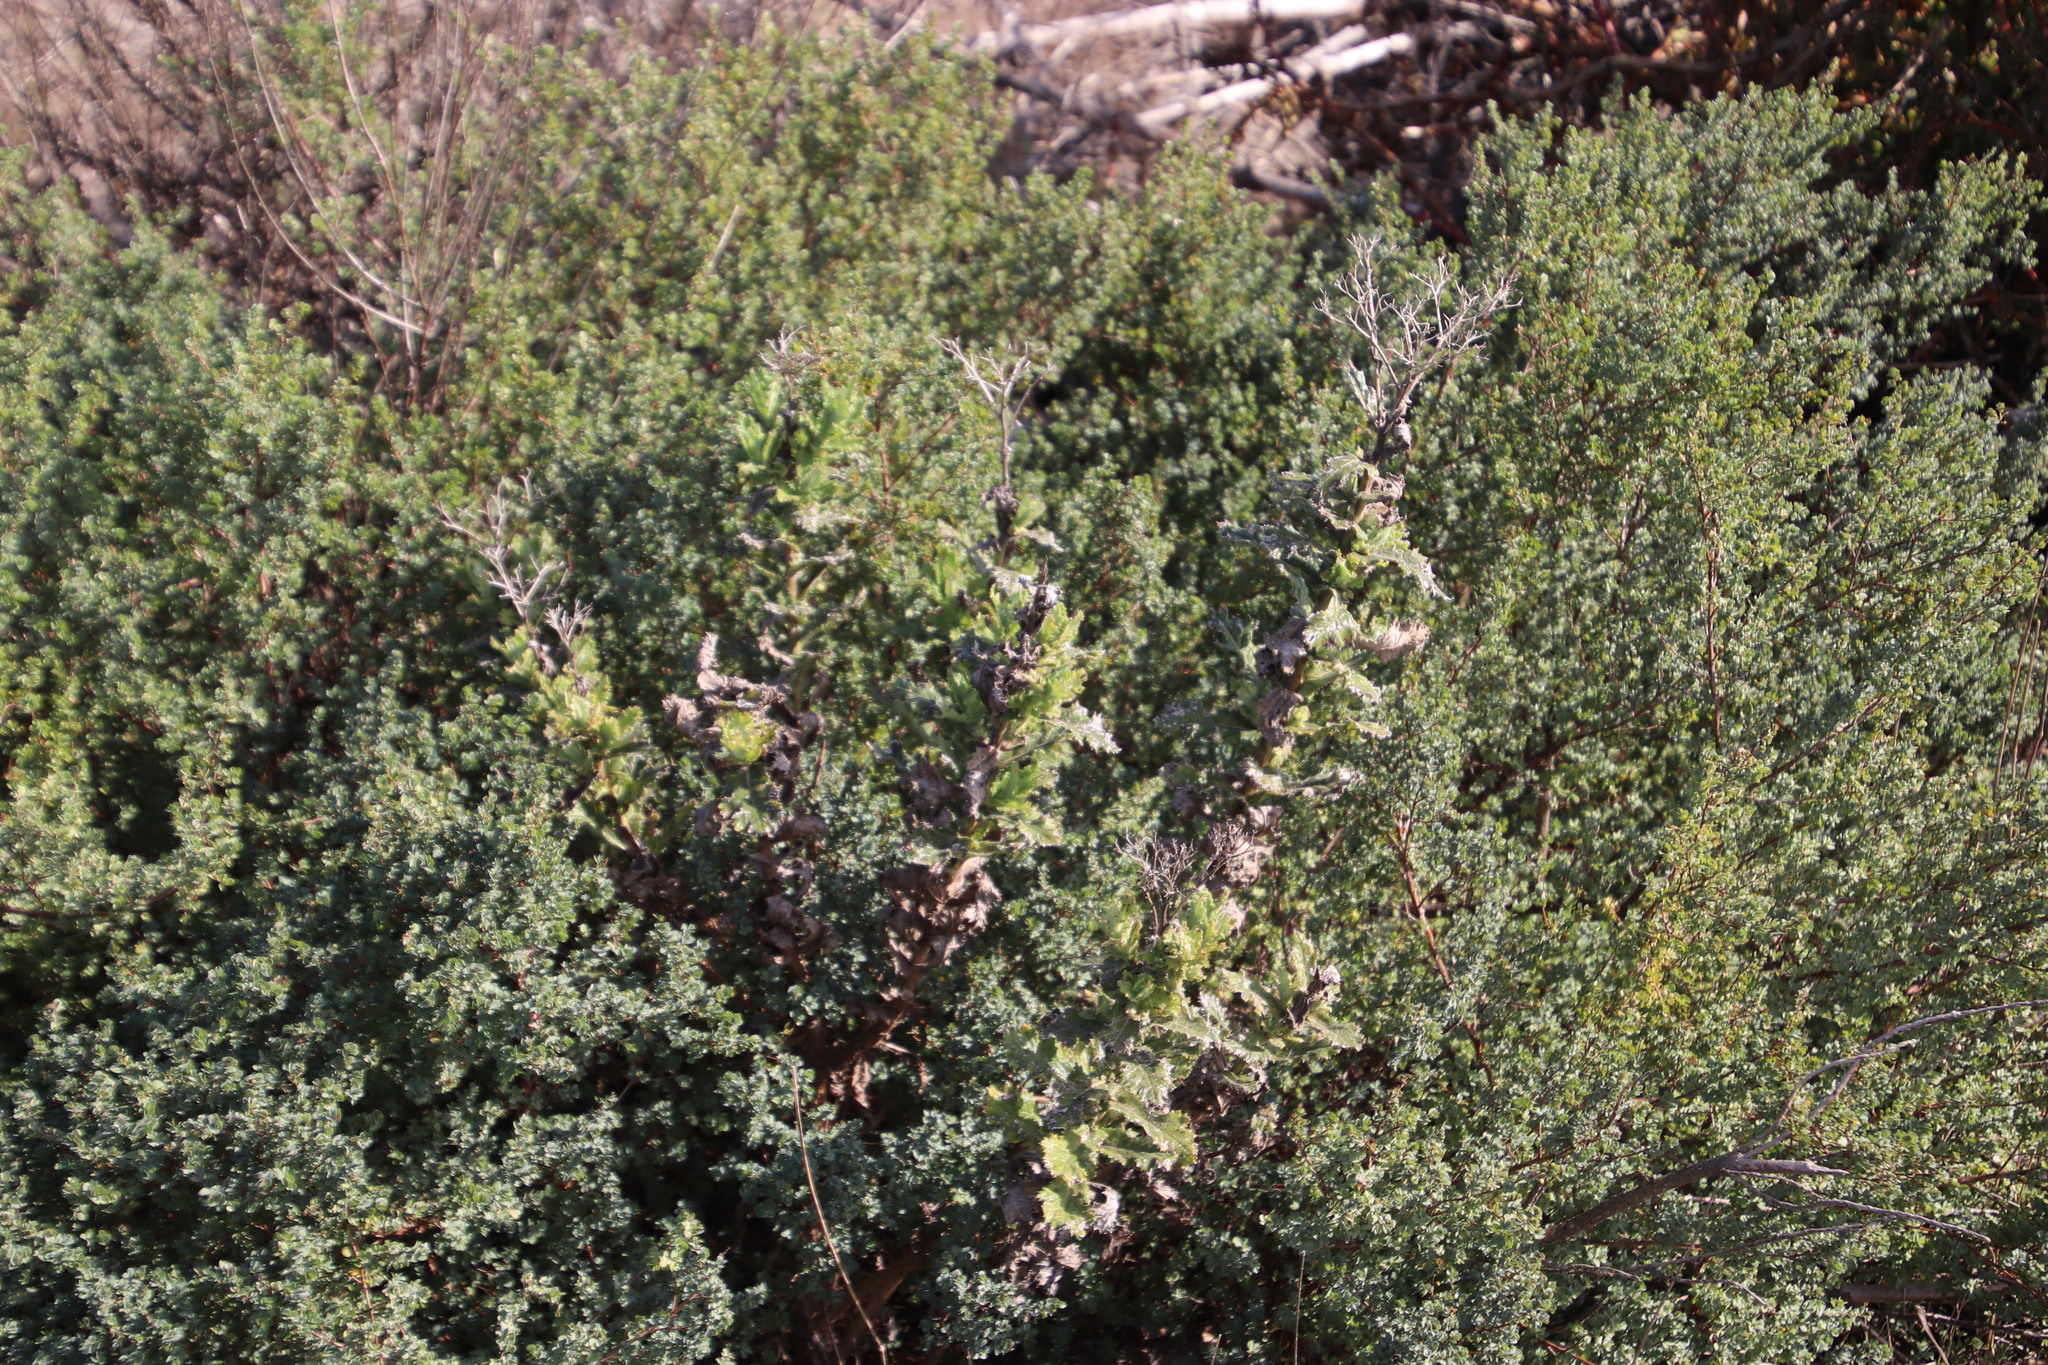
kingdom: Plantae
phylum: Tracheophyta
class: Magnoliopsida
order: Asterales
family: Asteraceae
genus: Senecio
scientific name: Senecio rigidus
